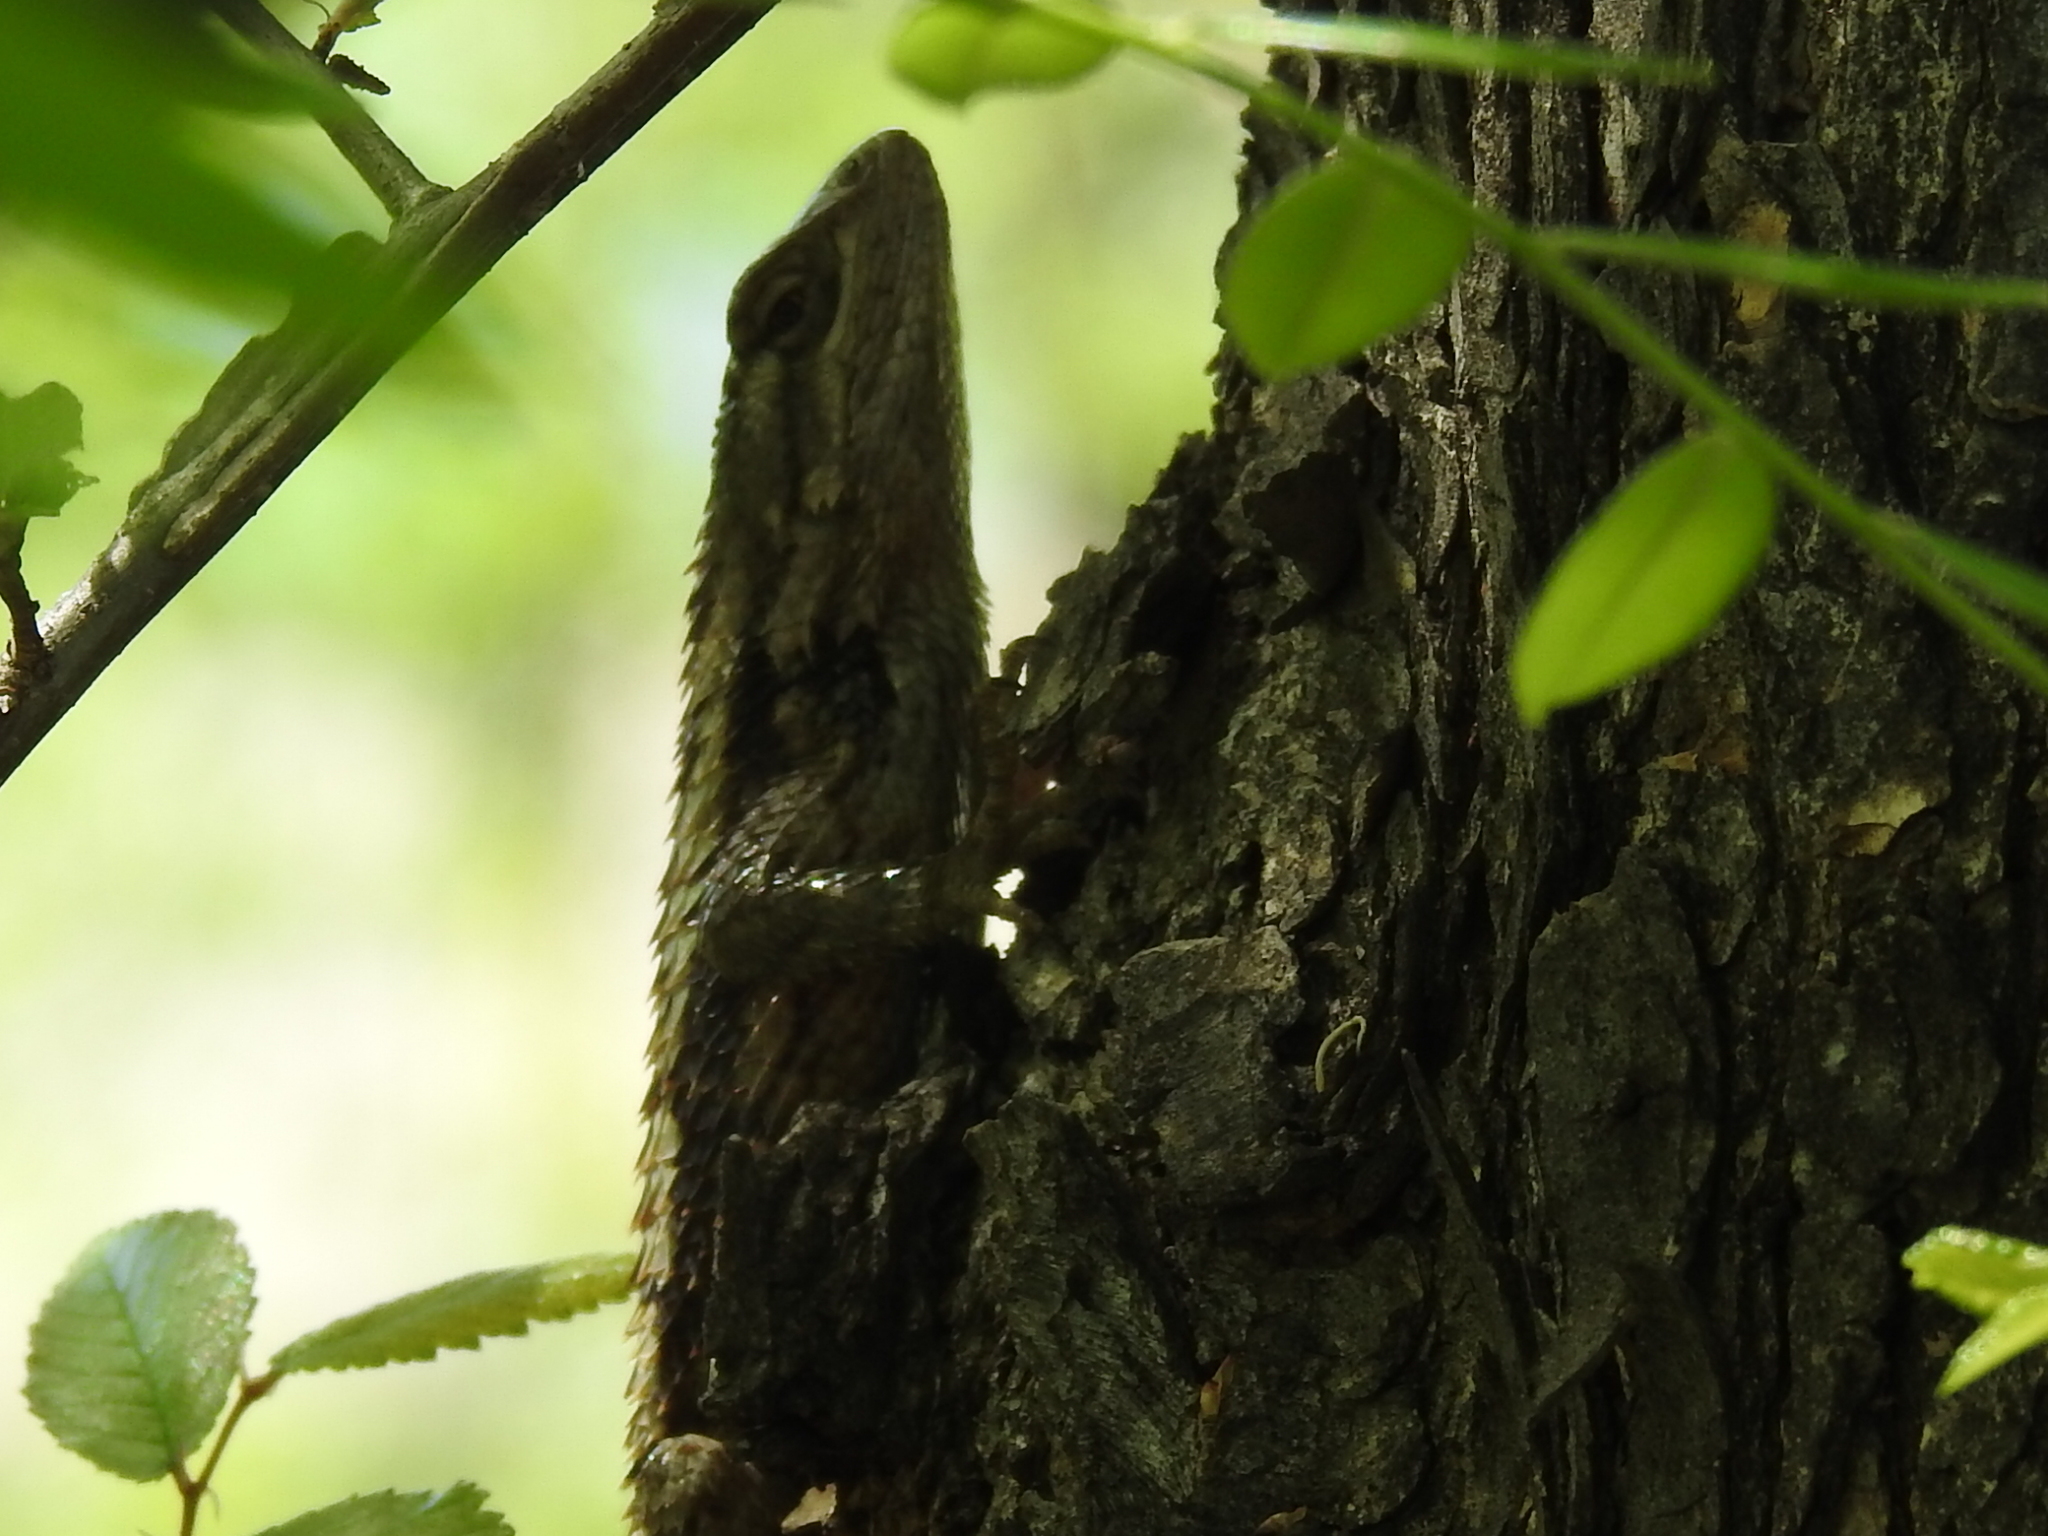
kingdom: Animalia
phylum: Chordata
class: Squamata
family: Phrynosomatidae
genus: Sceloporus
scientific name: Sceloporus olivaceus
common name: Texas spiny lizard
